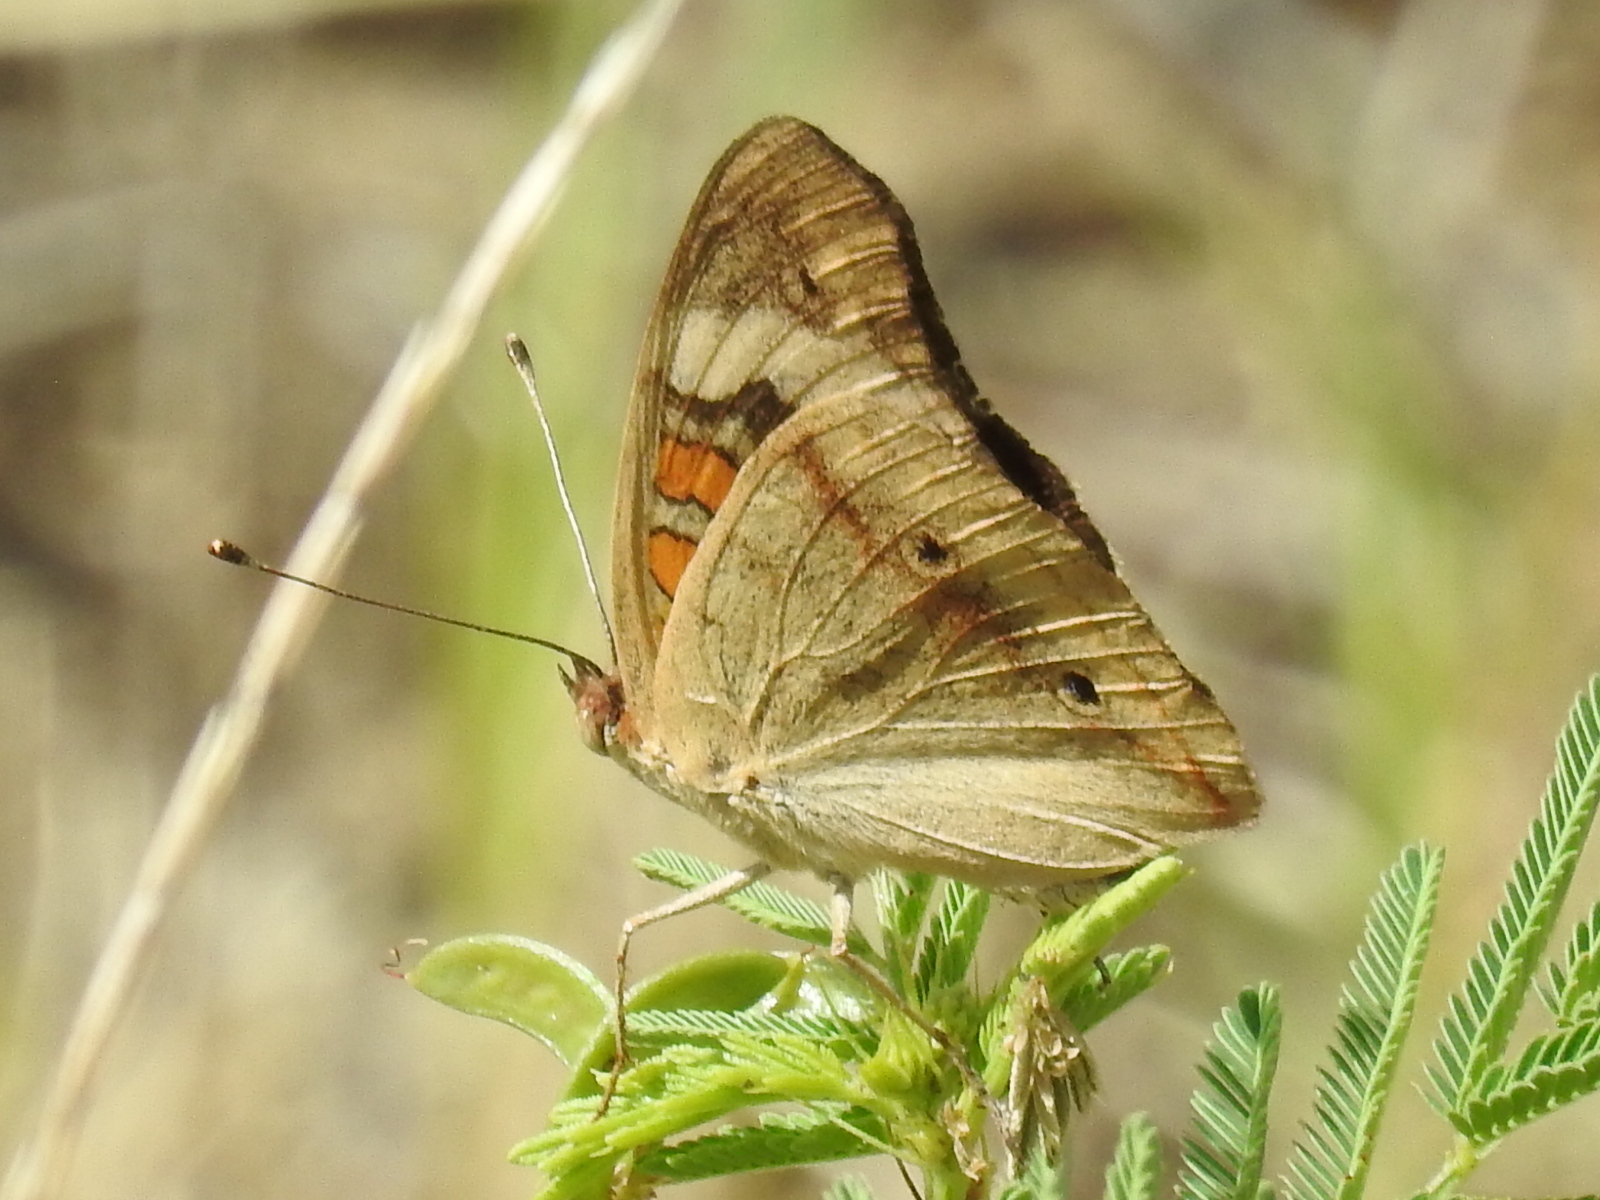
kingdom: Animalia
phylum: Arthropoda
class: Insecta
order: Lepidoptera
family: Nymphalidae
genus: Junonia
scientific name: Junonia coenia
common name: Common buckeye
